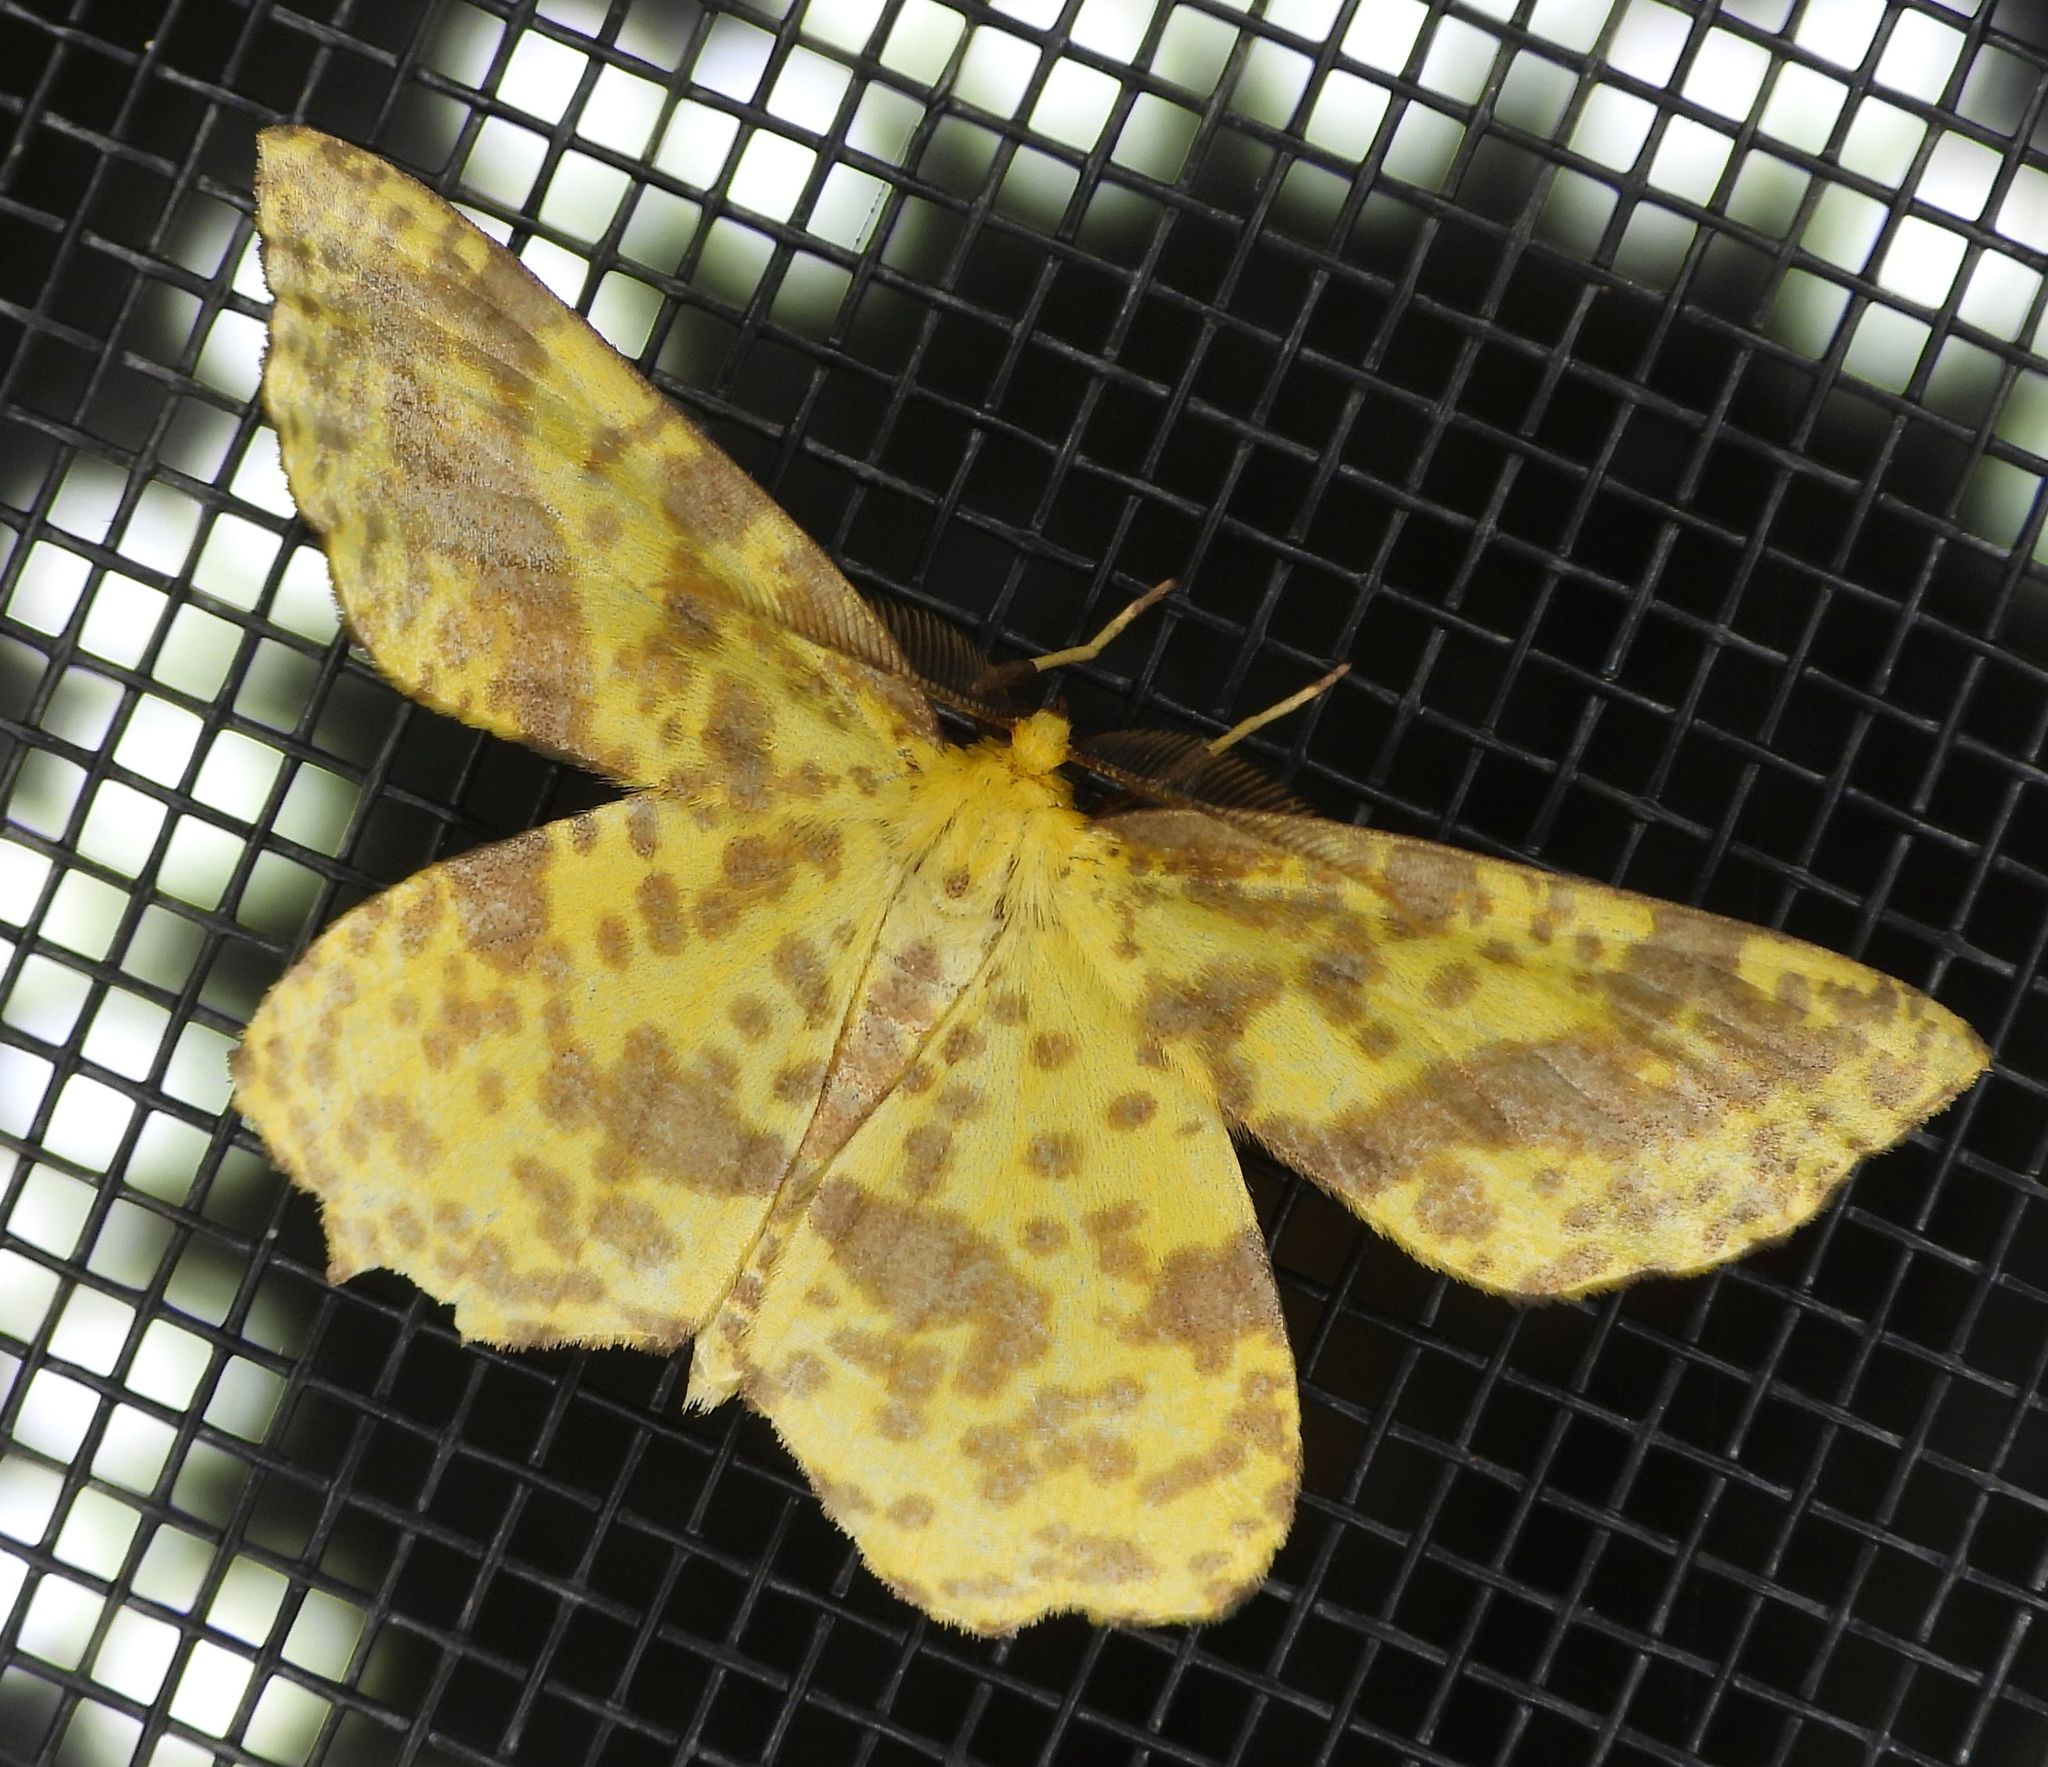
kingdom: Animalia
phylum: Arthropoda
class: Insecta
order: Lepidoptera
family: Geometridae
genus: Xanthotype
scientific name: Xanthotype
